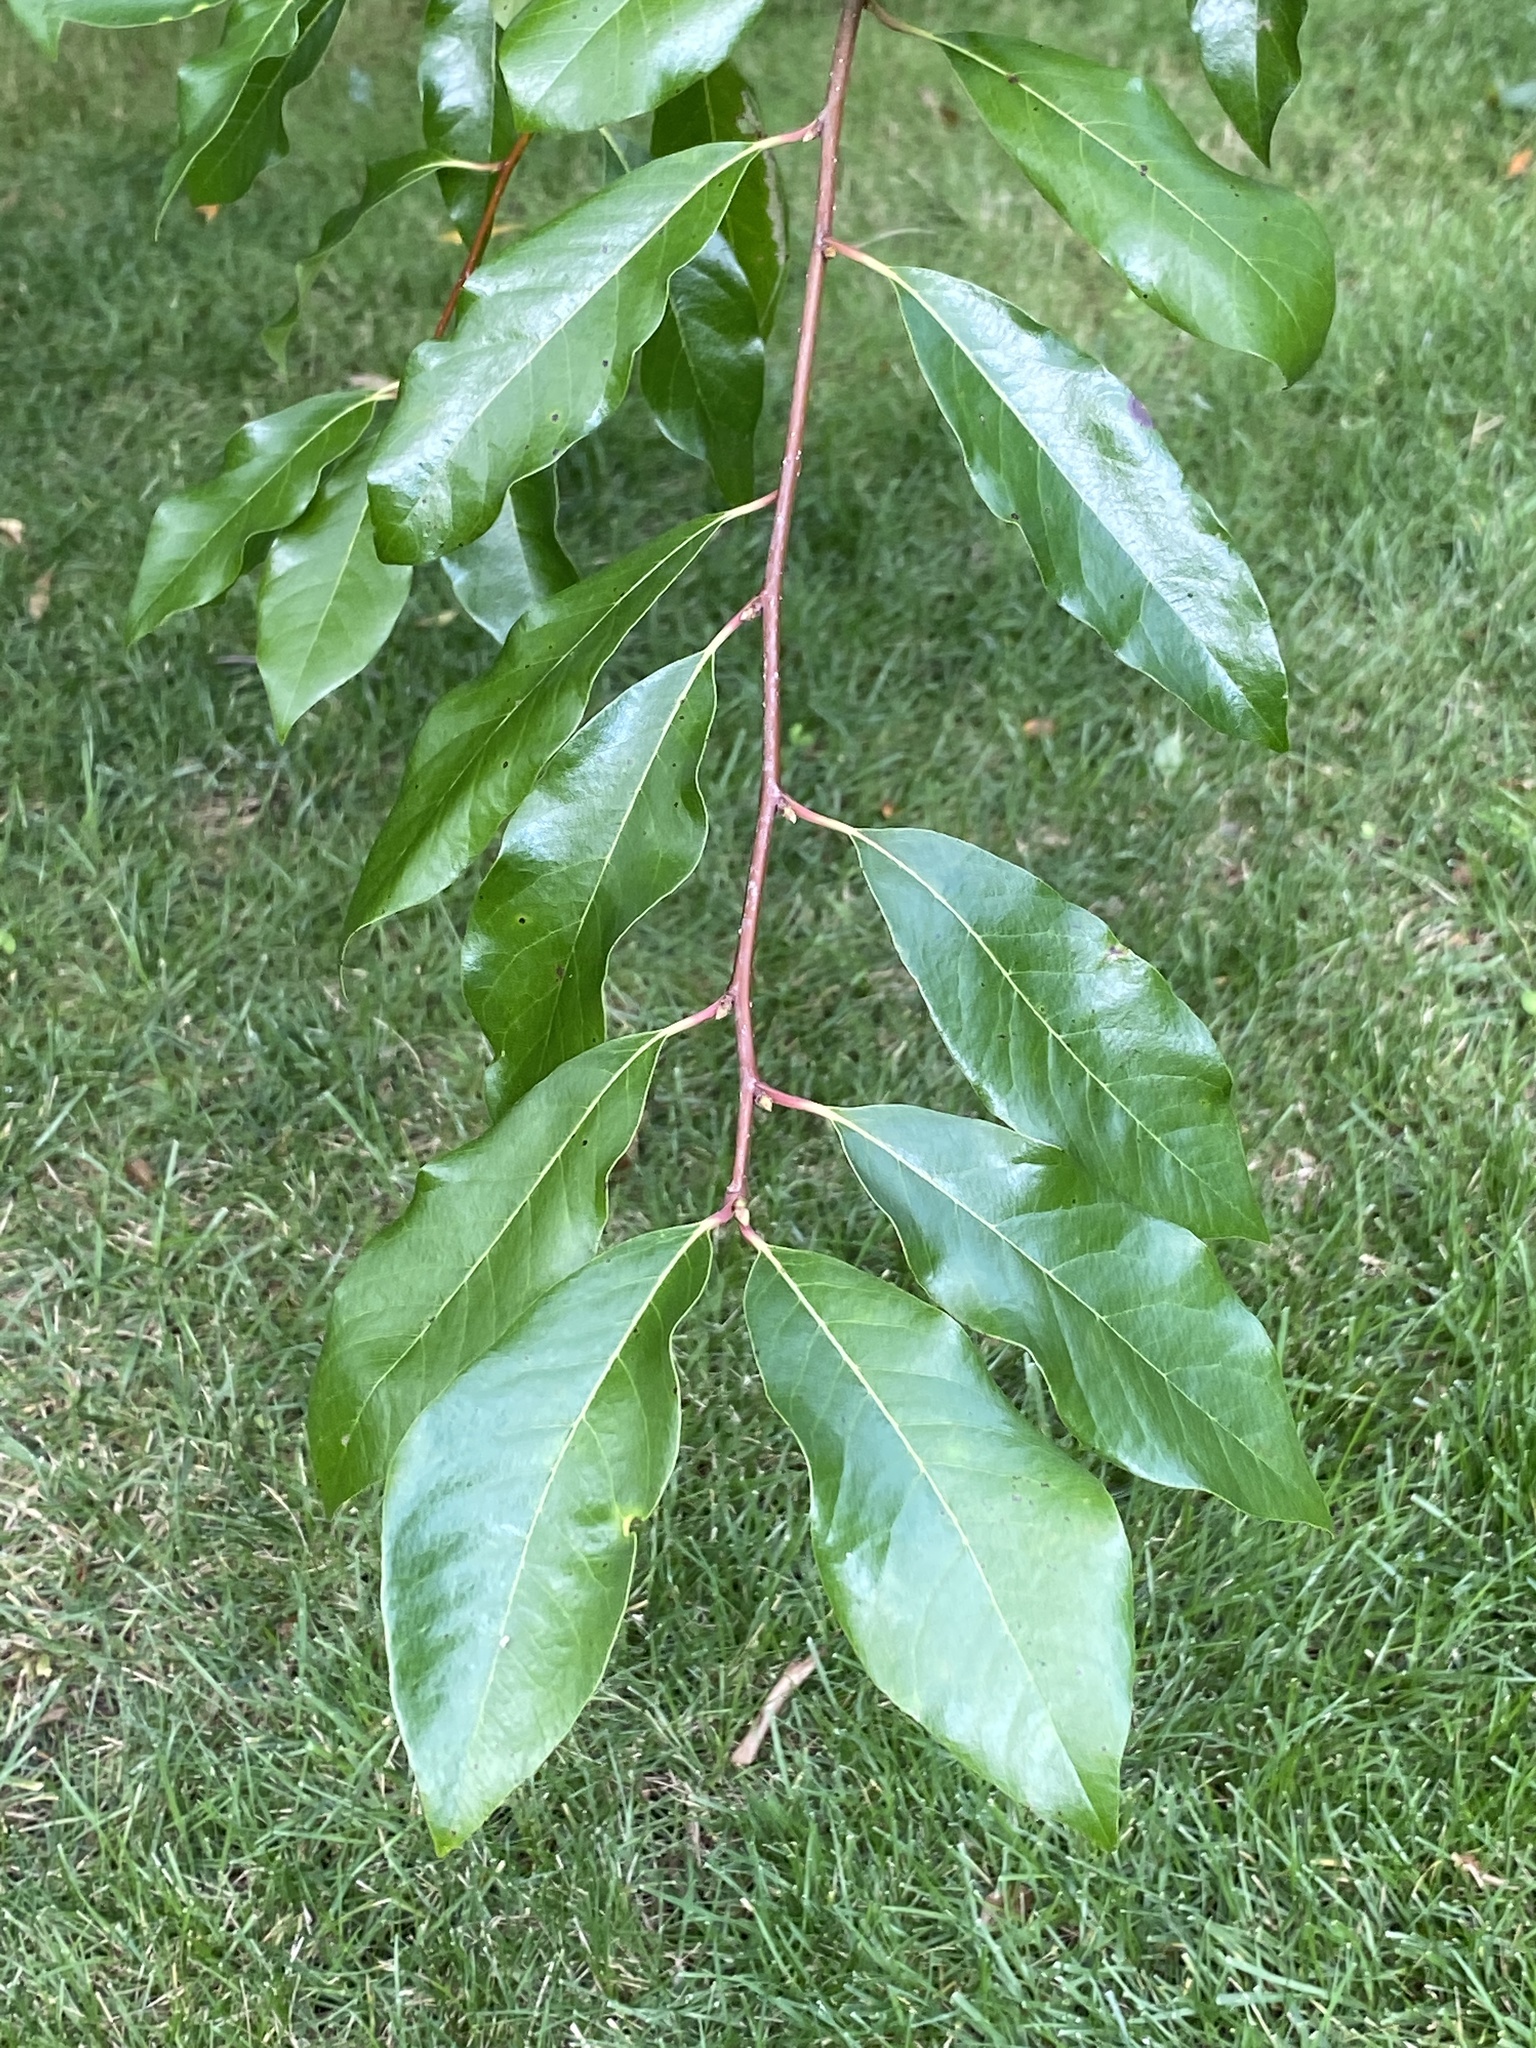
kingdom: Plantae
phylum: Tracheophyta
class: Magnoliopsida
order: Cornales
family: Nyssaceae
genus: Nyssa
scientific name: Nyssa sylvatica
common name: Black tupelo
